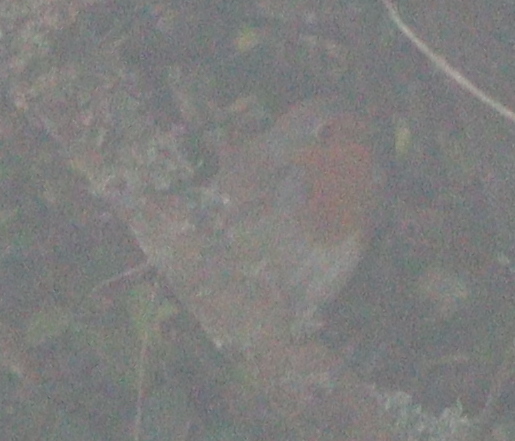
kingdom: Animalia
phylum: Chordata
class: Aves
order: Passeriformes
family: Muscicapidae
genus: Erithacus
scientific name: Erithacus rubecula
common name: European robin
